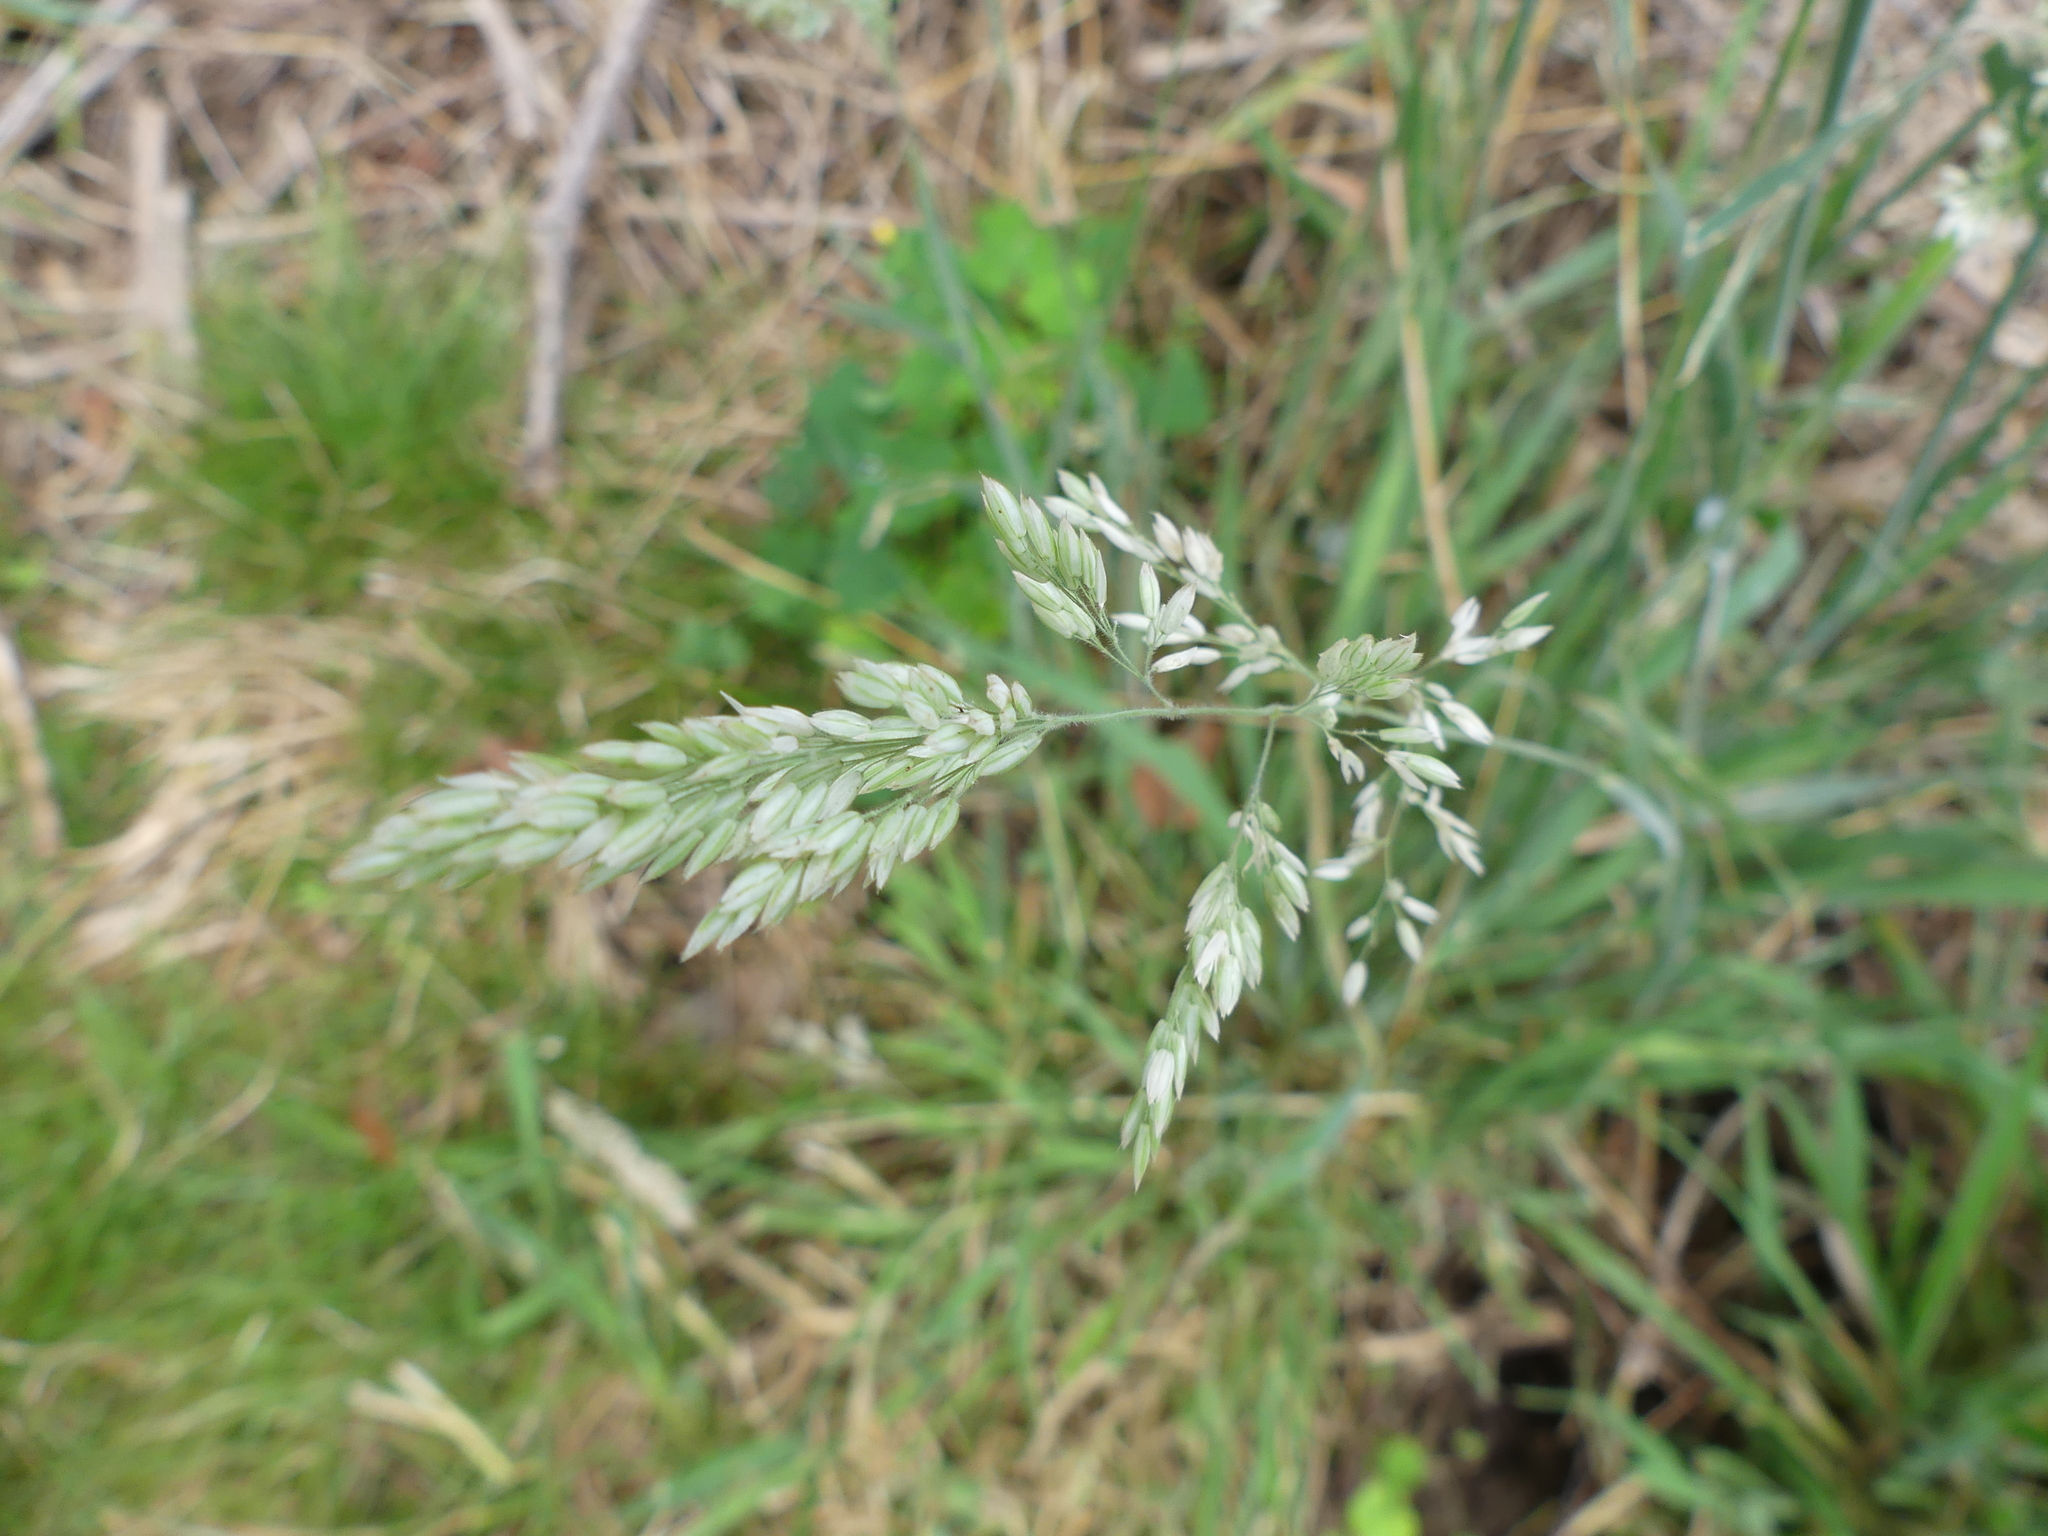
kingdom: Plantae
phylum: Tracheophyta
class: Liliopsida
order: Poales
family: Poaceae
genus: Holcus
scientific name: Holcus lanatus
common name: Yorkshire-fog
